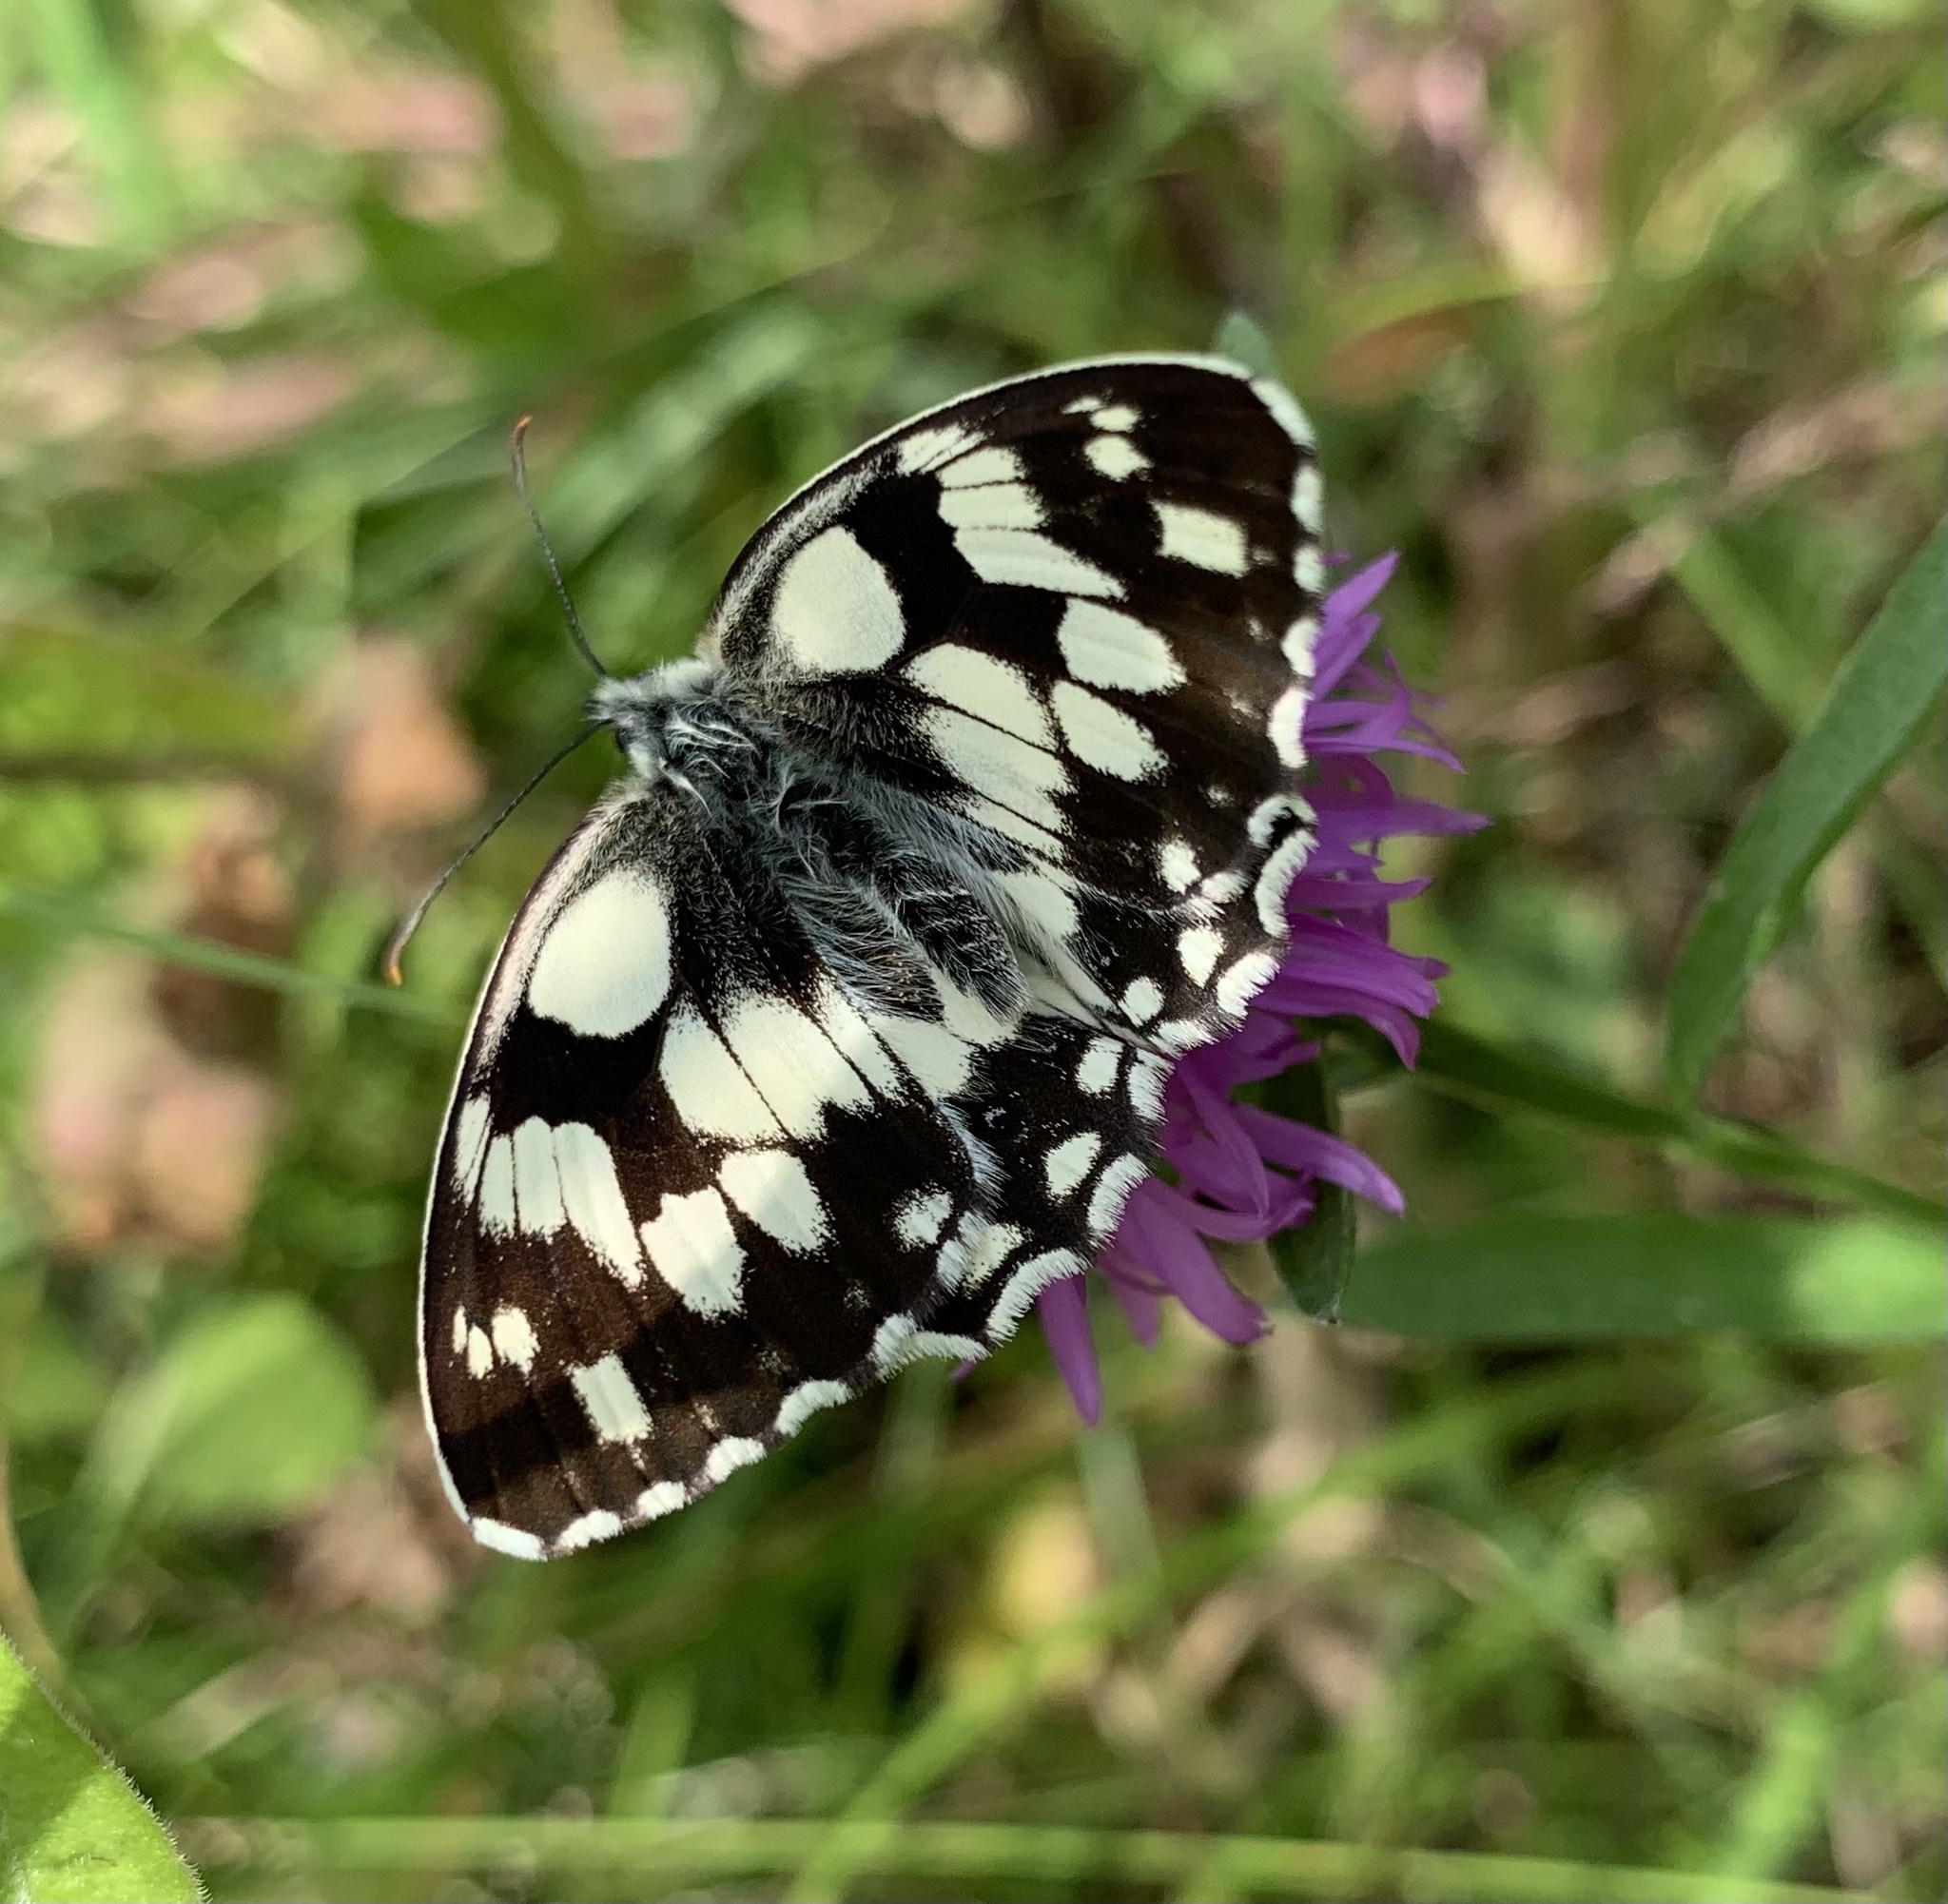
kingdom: Animalia
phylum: Arthropoda
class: Insecta
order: Lepidoptera
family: Nymphalidae
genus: Melanargia
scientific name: Melanargia galathea
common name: Marbled white
